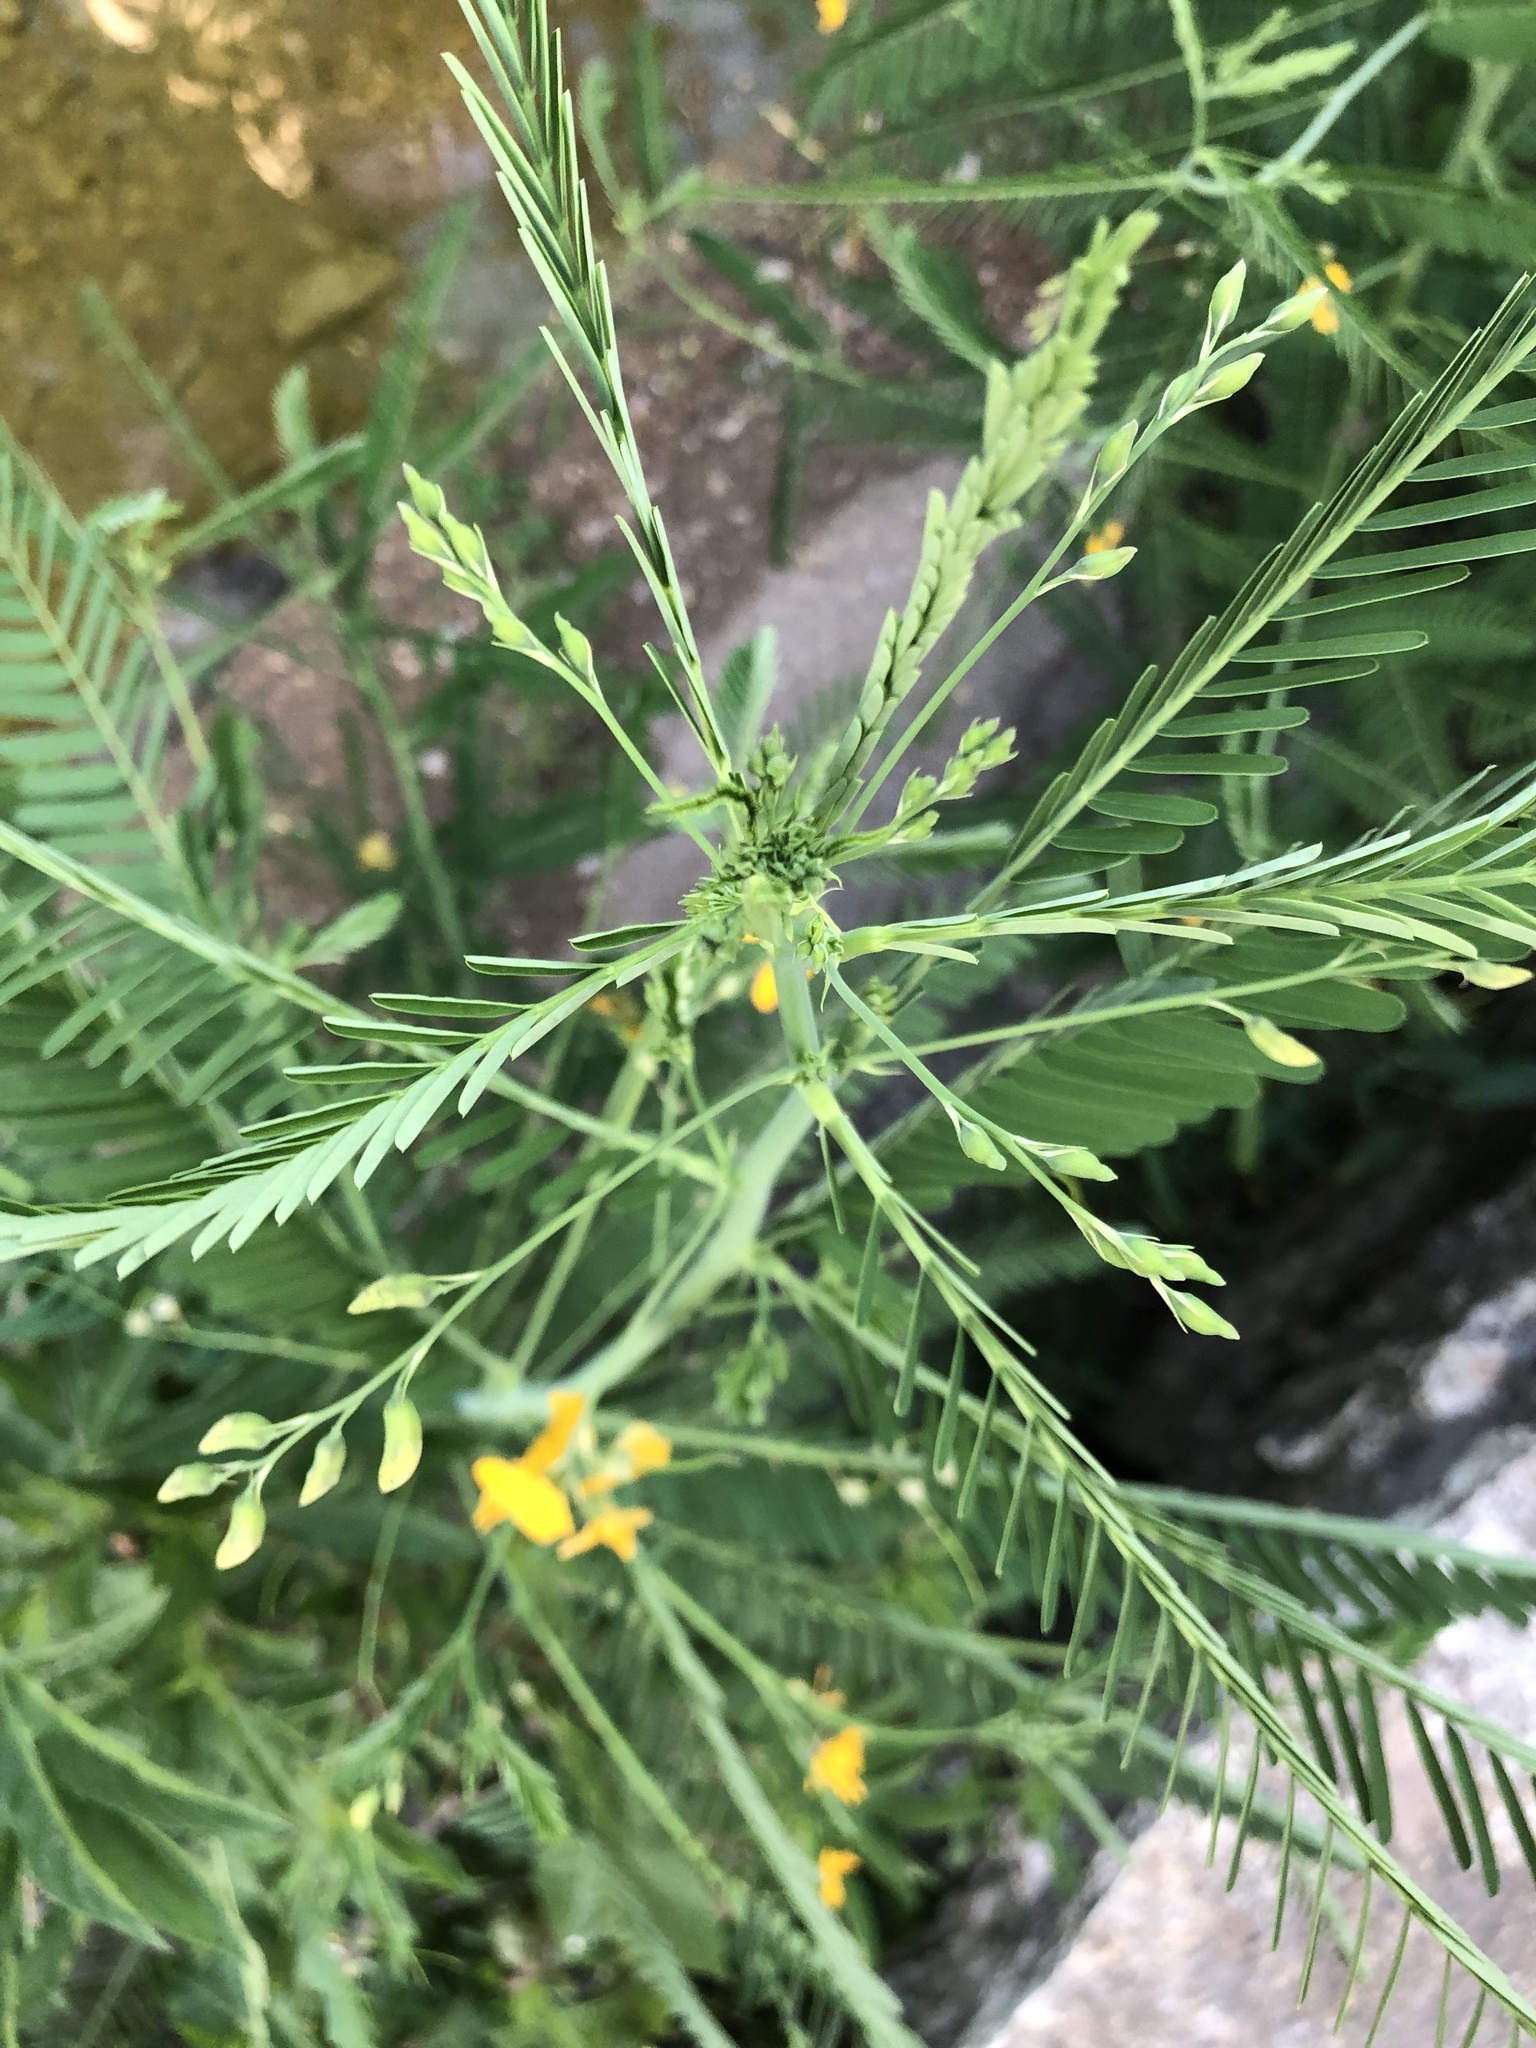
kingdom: Plantae
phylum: Tracheophyta
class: Magnoliopsida
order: Fabales
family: Fabaceae
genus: Sesbania
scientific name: Sesbania herbacea
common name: Bigpod sesbania
